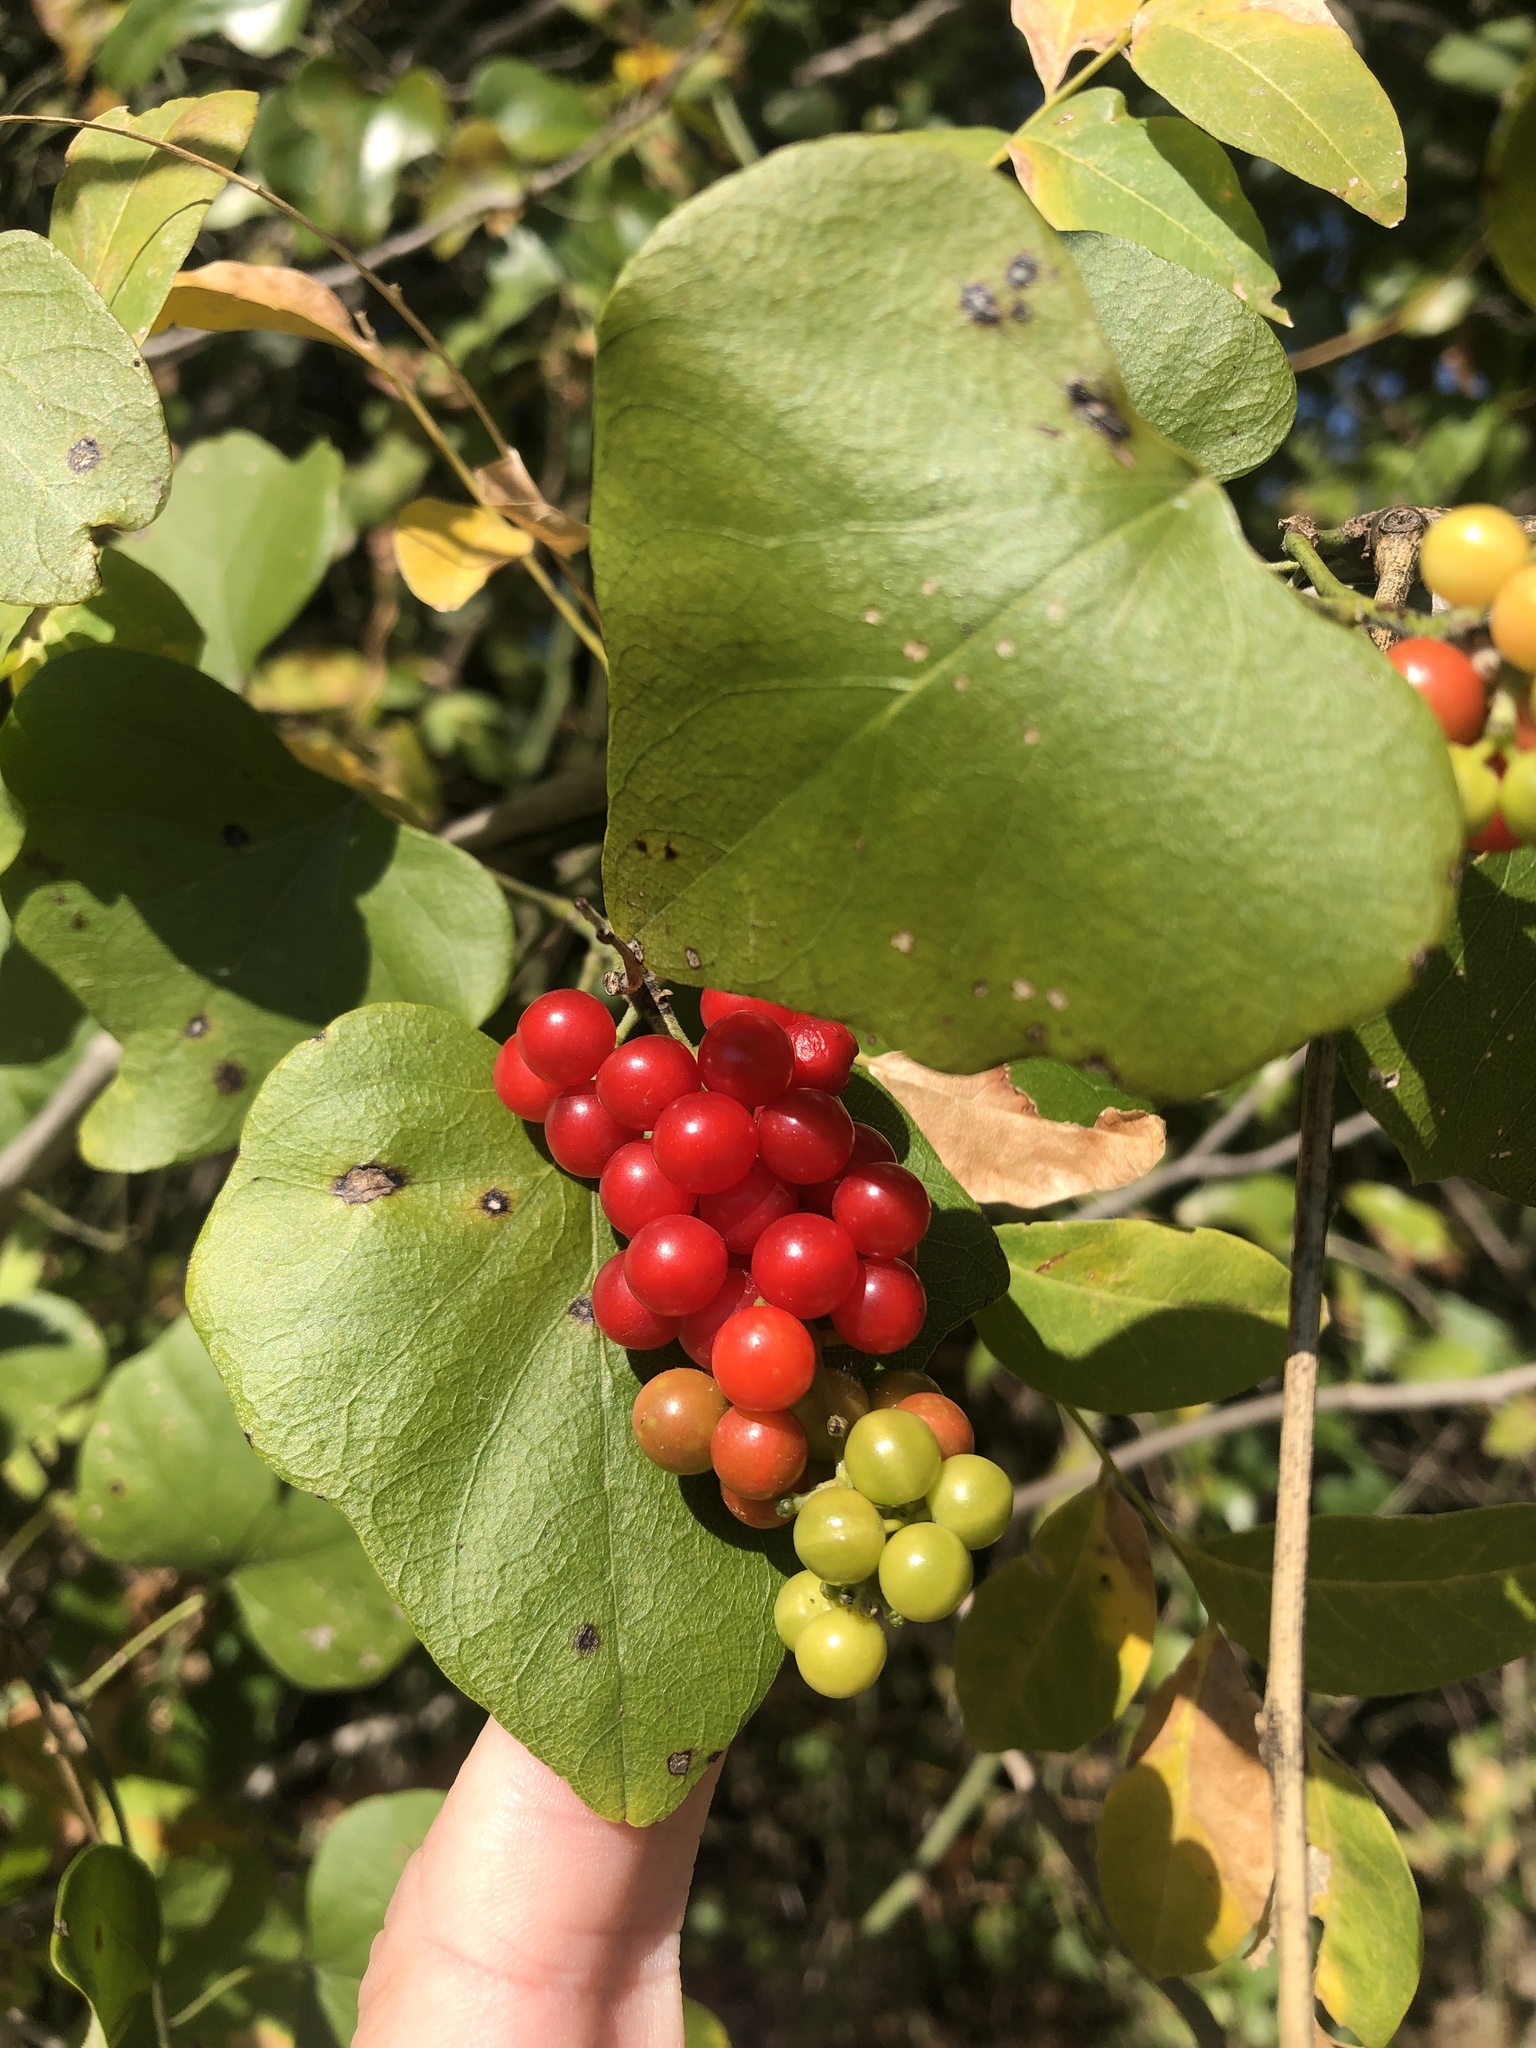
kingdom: Plantae
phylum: Tracheophyta
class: Magnoliopsida
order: Ranunculales
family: Menispermaceae
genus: Cocculus
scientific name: Cocculus carolinus
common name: Carolina moonseed
